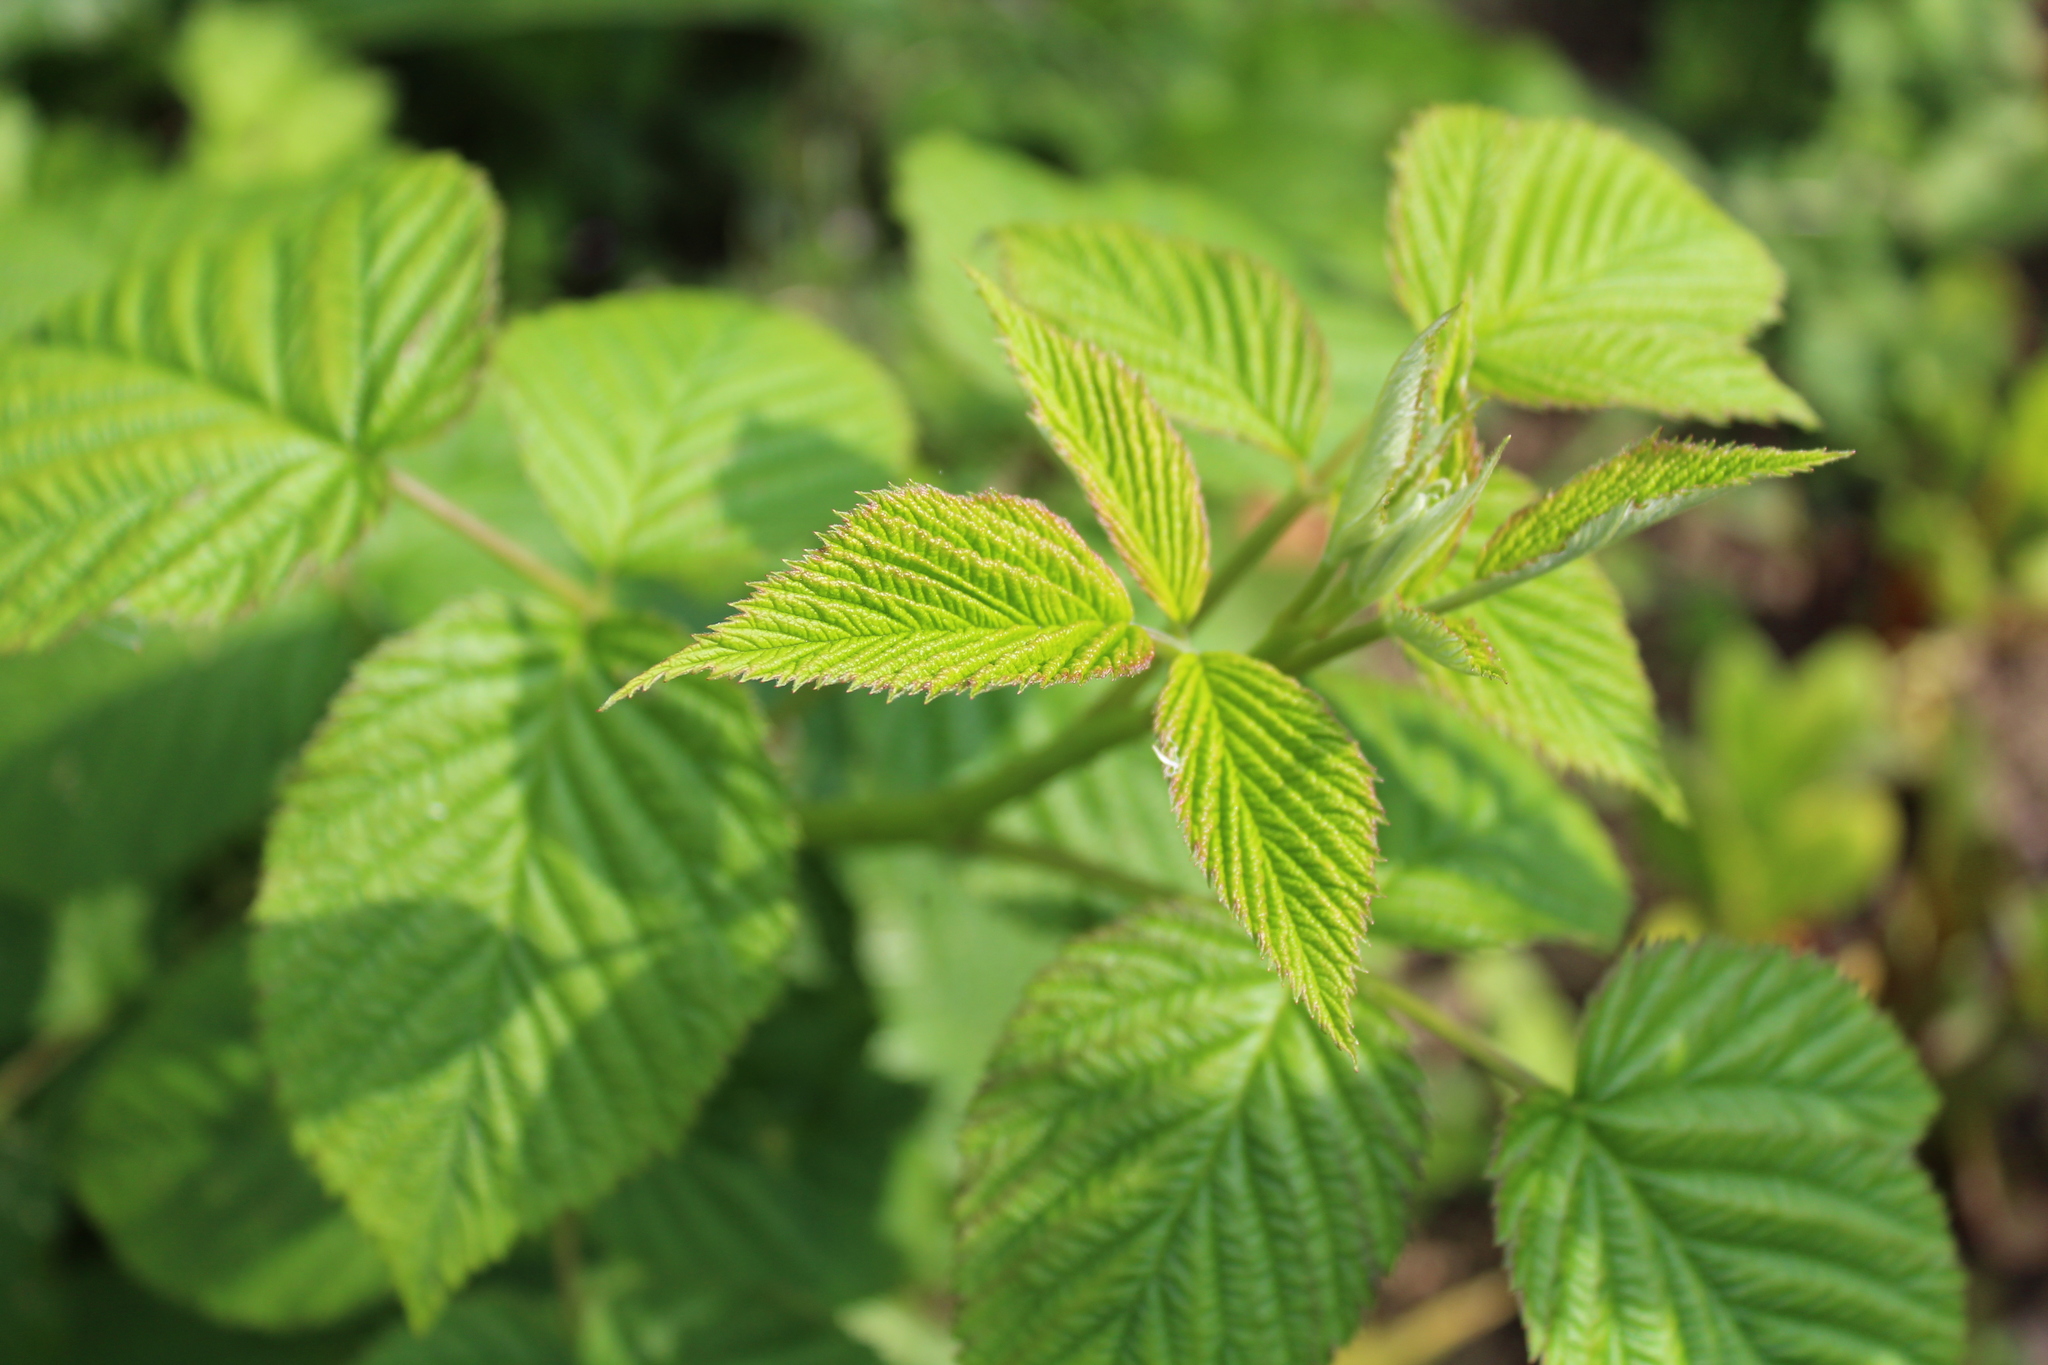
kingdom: Plantae
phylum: Tracheophyta
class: Magnoliopsida
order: Rosales
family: Rosaceae
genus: Rubus
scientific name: Rubus idaeus
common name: Raspberry
